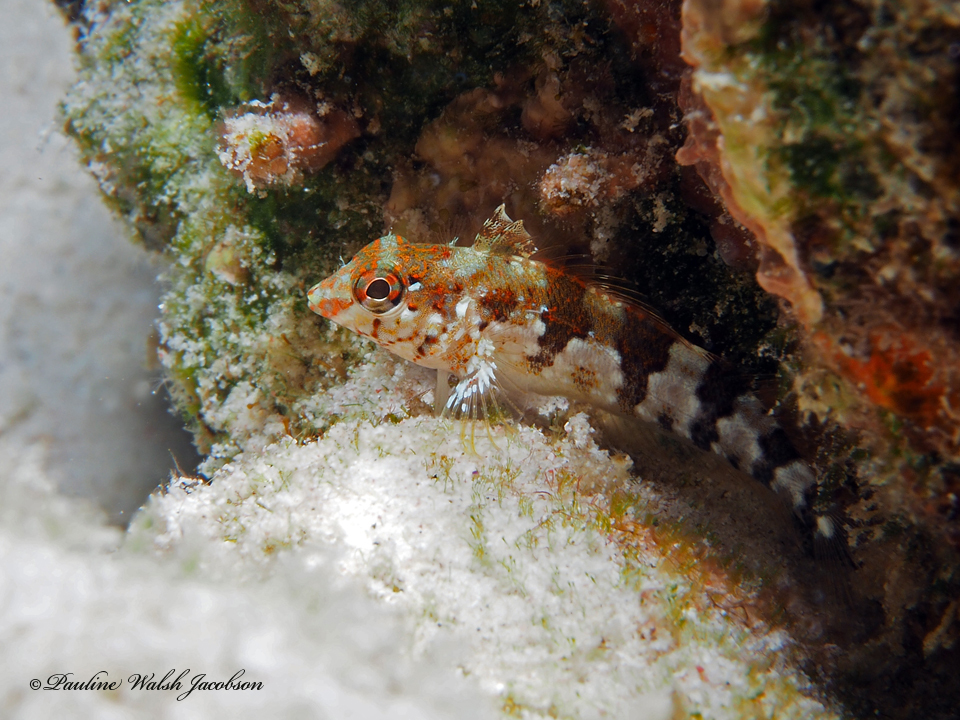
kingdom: Animalia
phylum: Chordata
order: Perciformes
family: Labrisomidae
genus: Malacoctenus
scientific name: Malacoctenus triangulatus
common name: Saddled blenny
